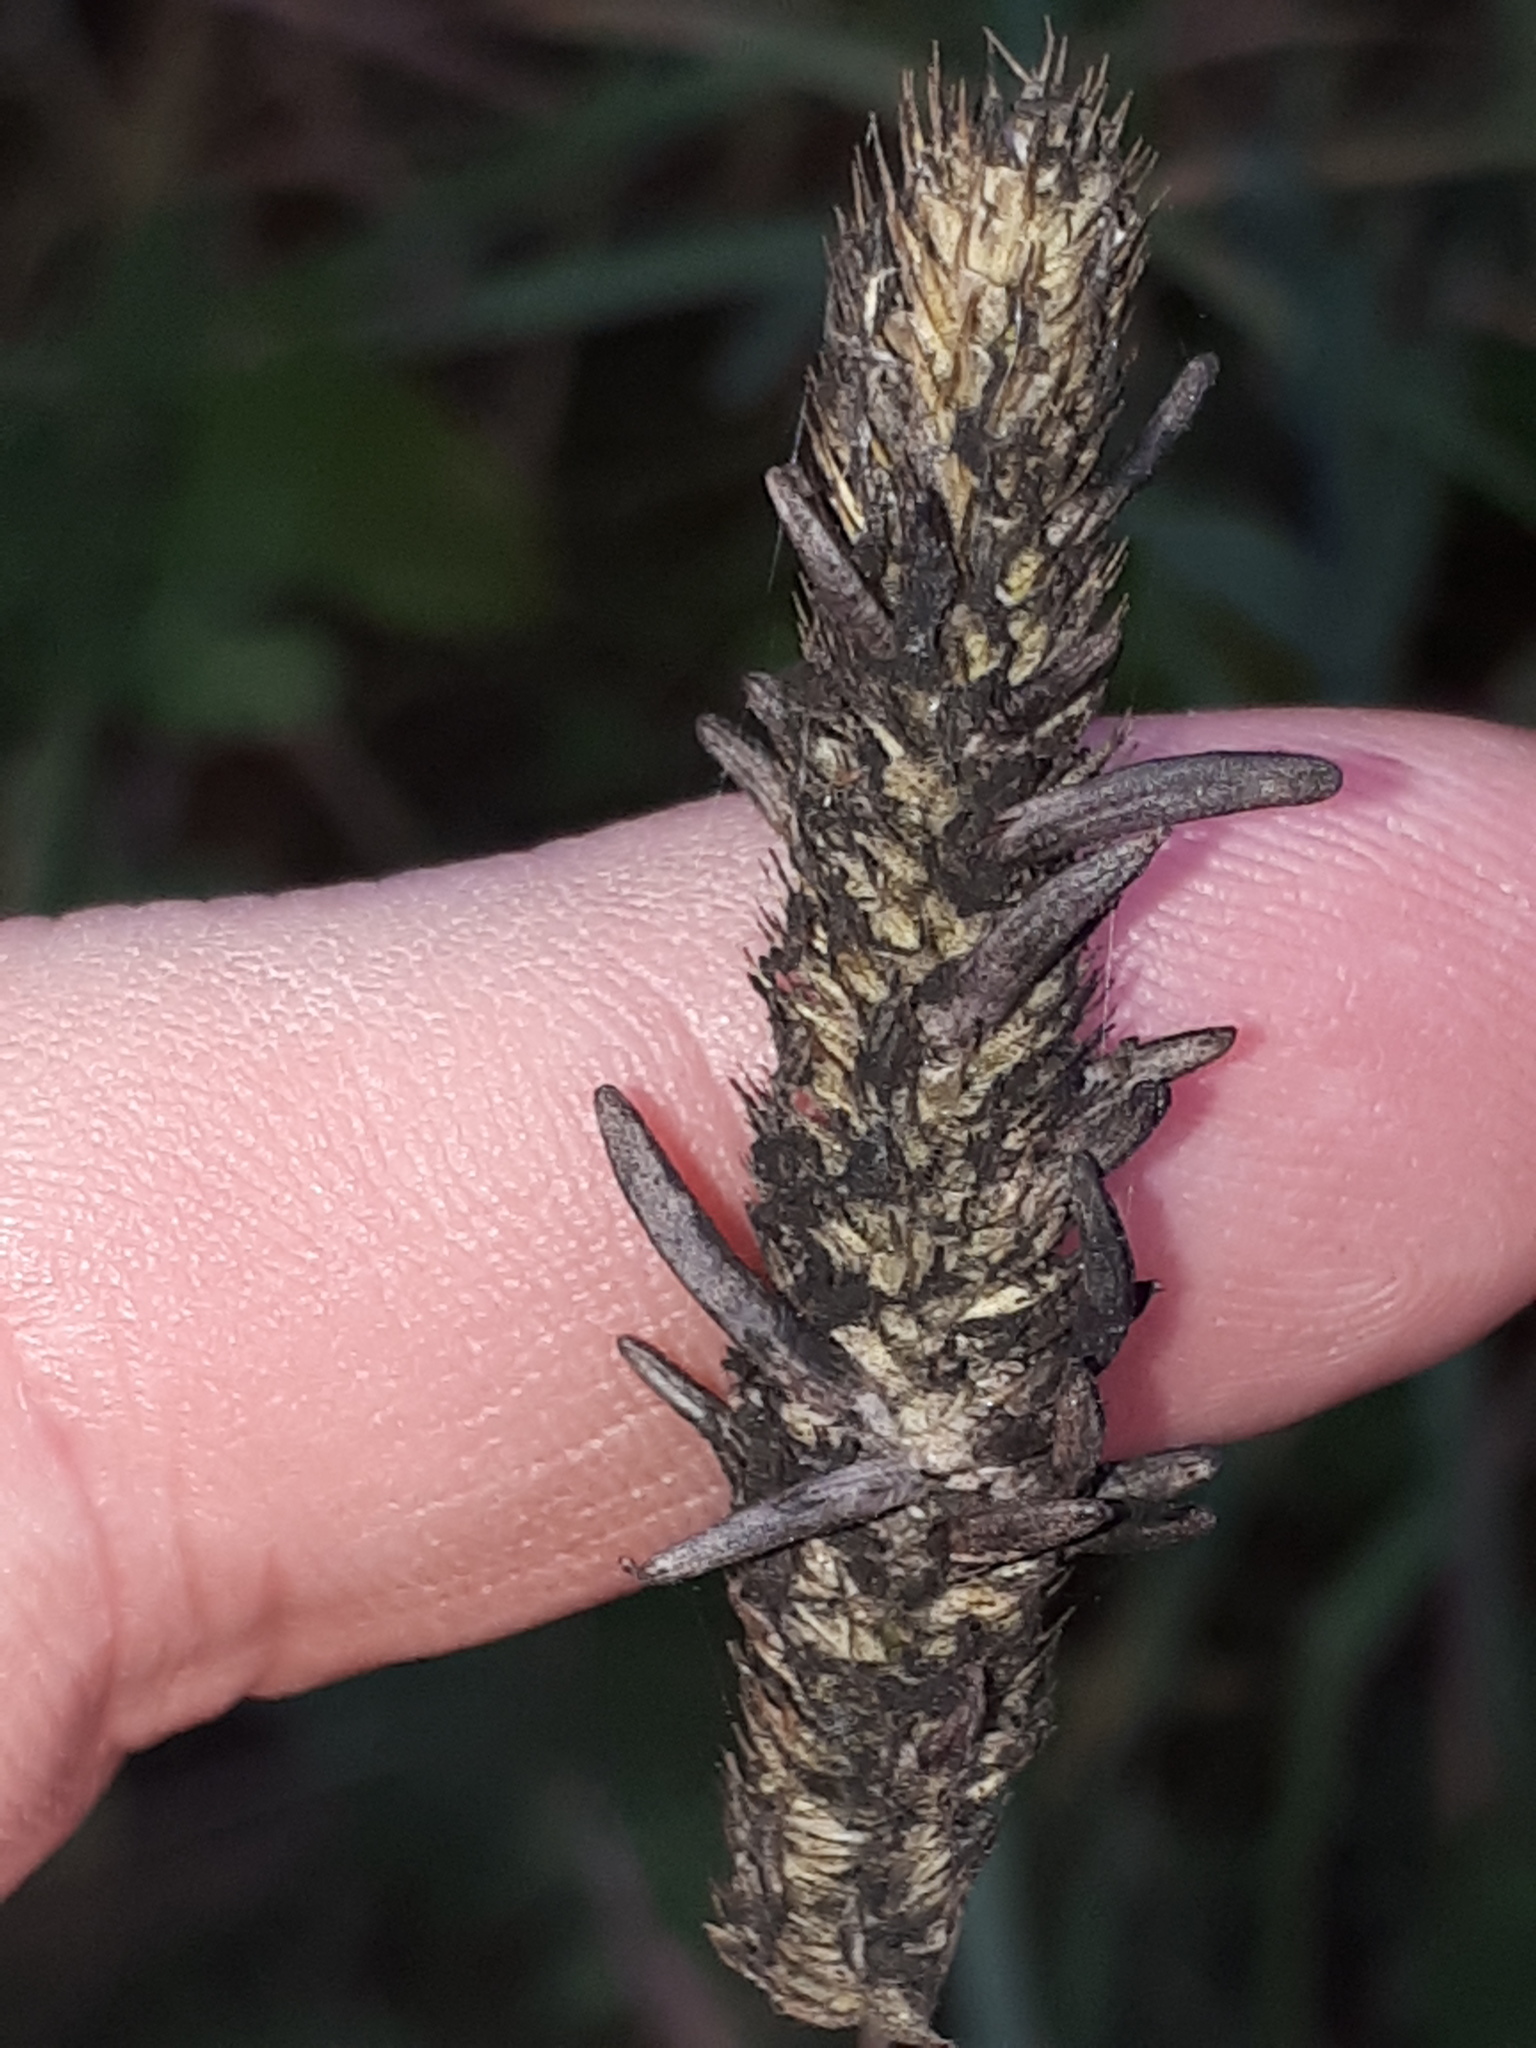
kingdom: Fungi
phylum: Ascomycota
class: Sordariomycetes
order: Hypocreales
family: Clavicipitaceae
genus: Claviceps
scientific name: Claviceps purpurea
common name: Rye ergot
